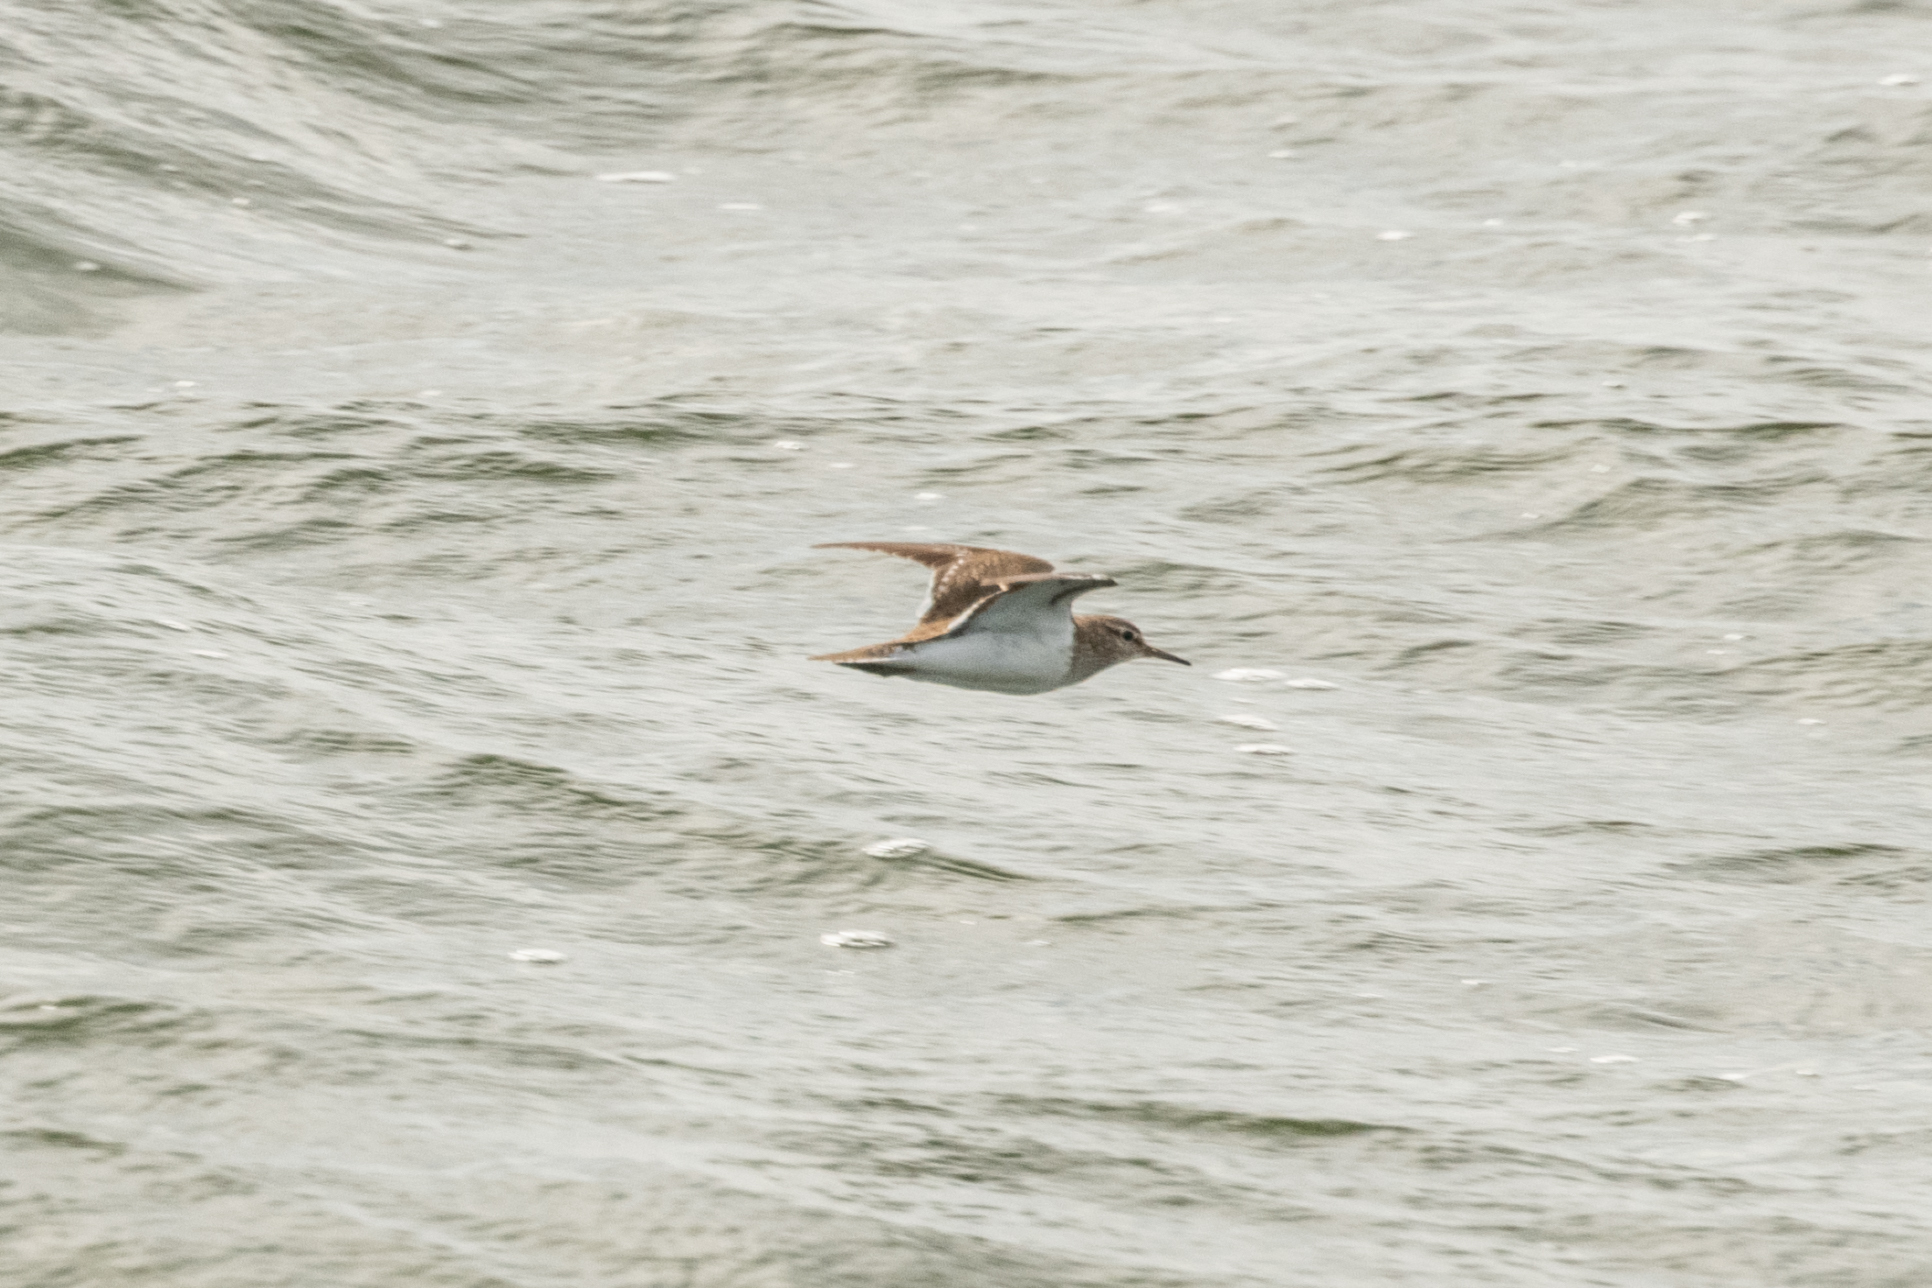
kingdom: Animalia
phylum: Chordata
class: Aves
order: Charadriiformes
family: Scolopacidae
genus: Actitis
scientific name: Actitis hypoleucos
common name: Common sandpiper
